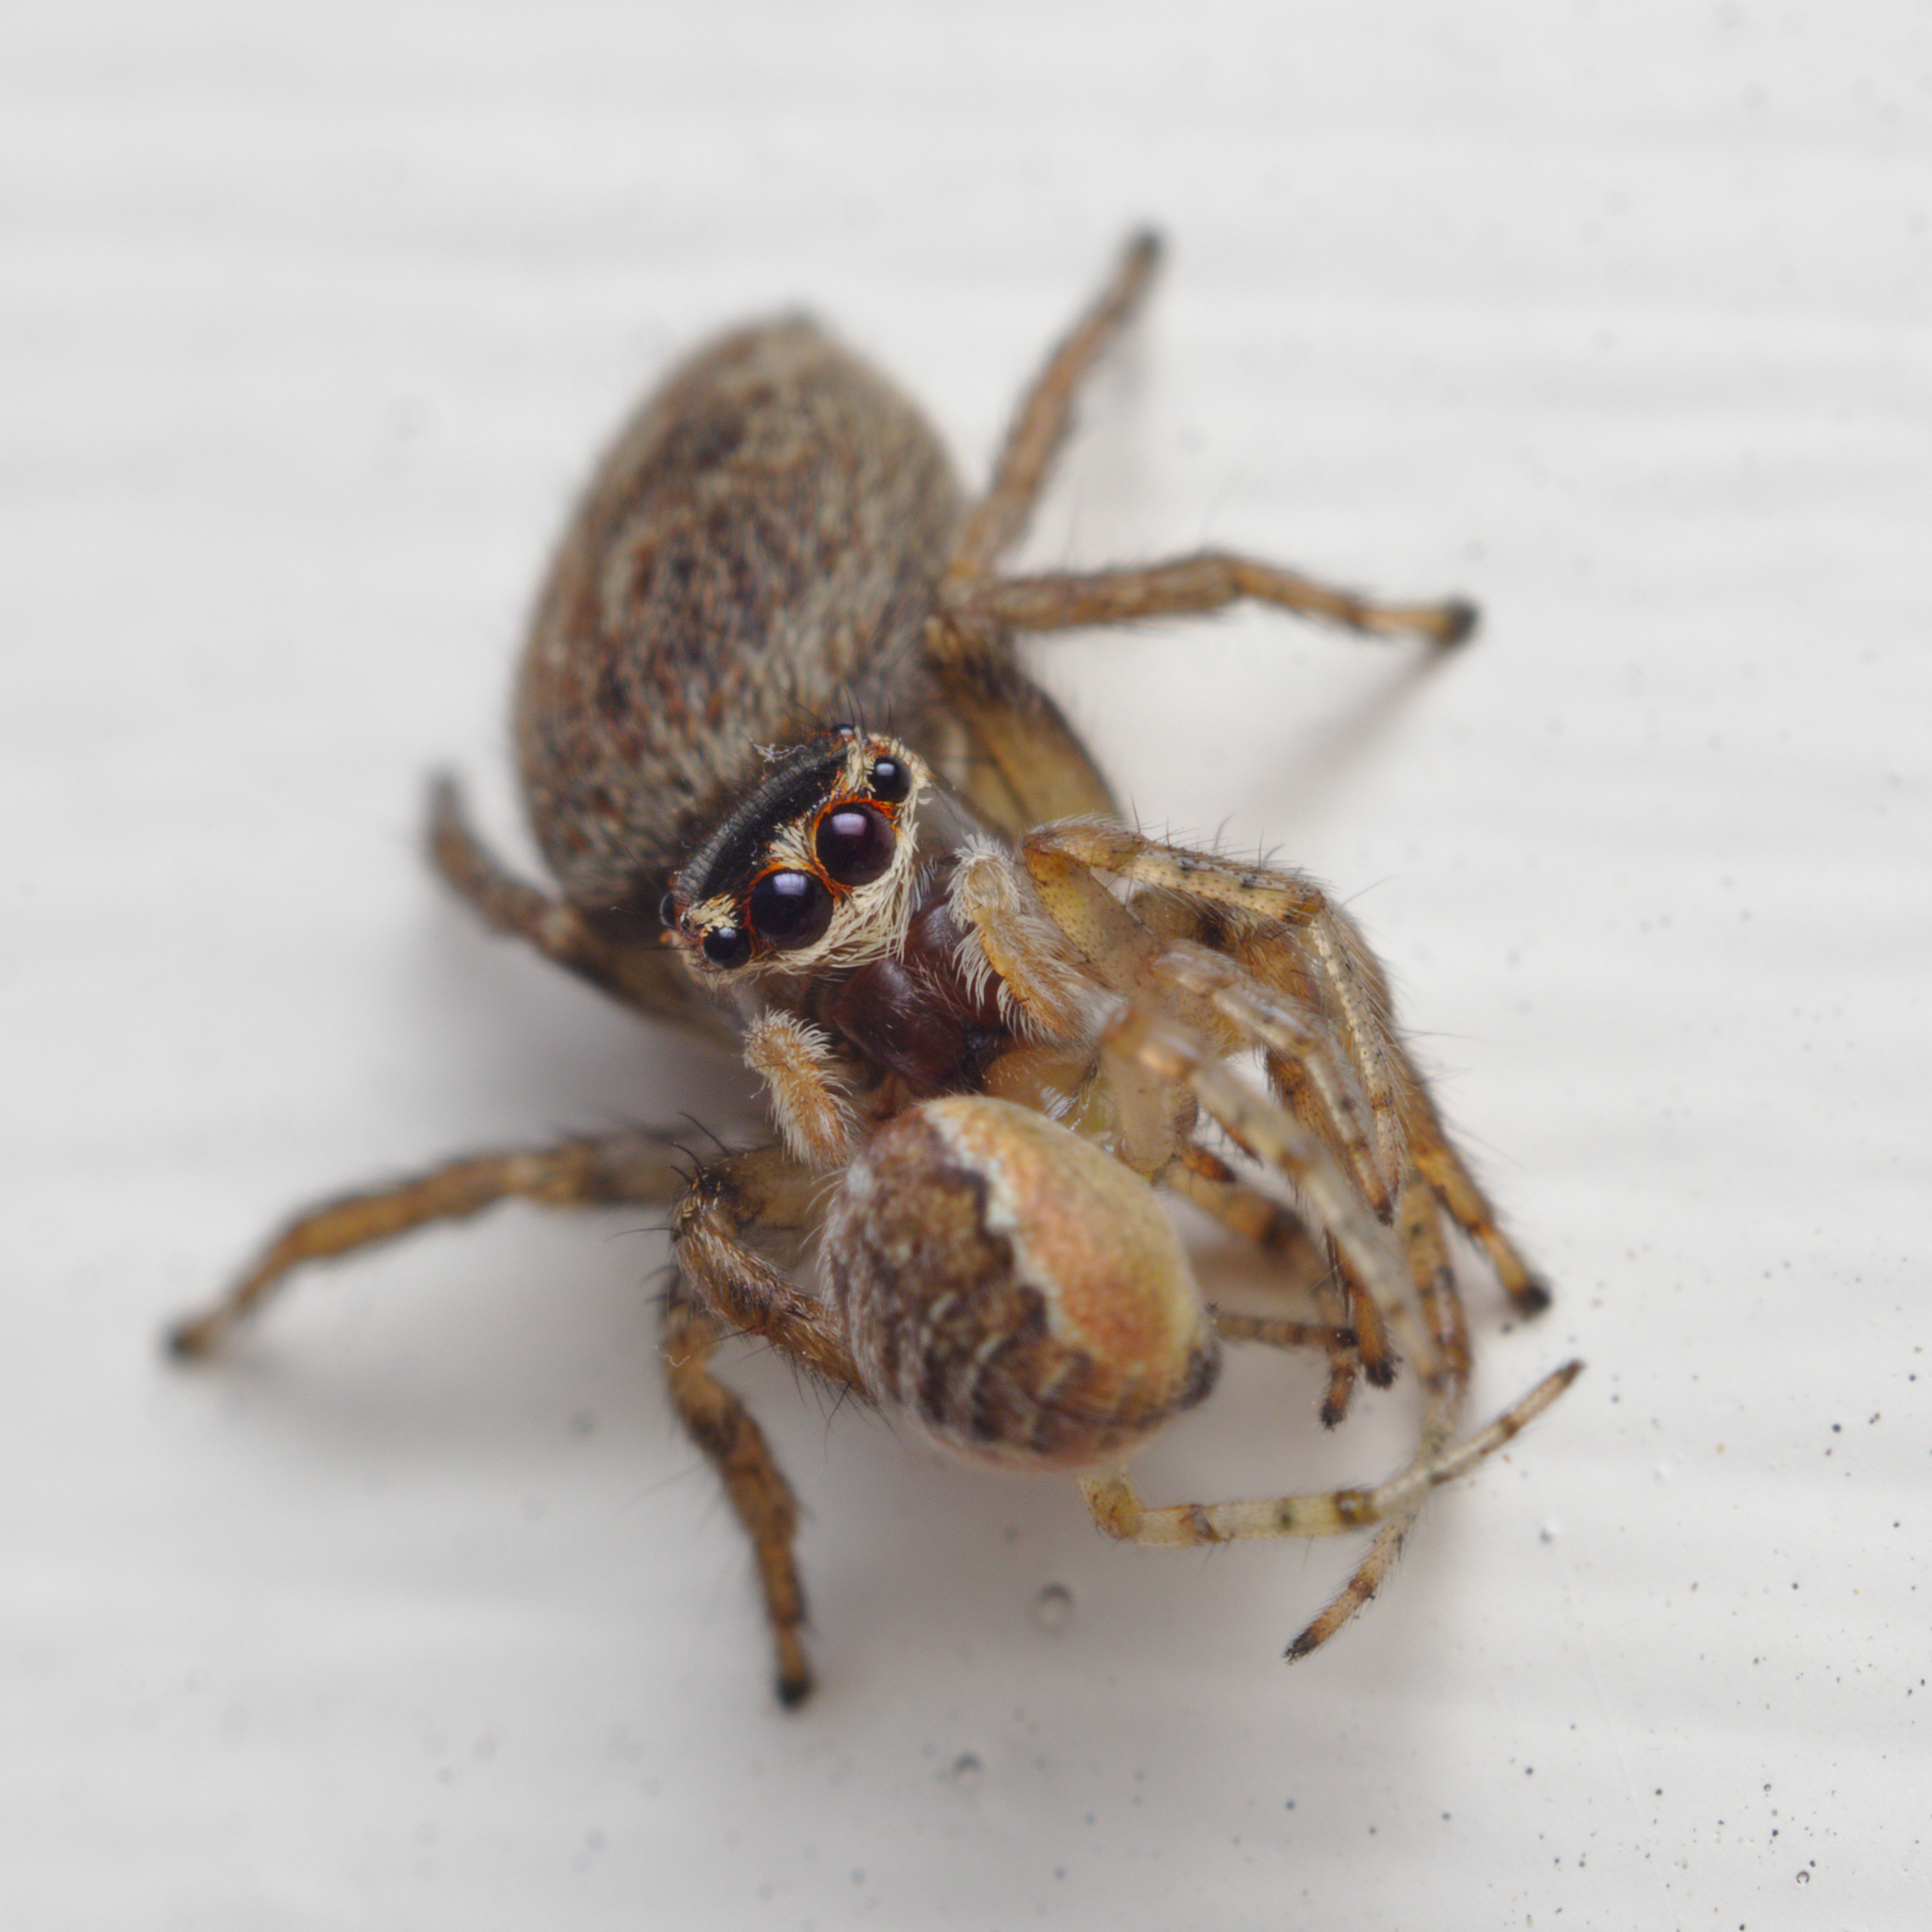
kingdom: Animalia
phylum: Arthropoda
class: Arachnida
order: Araneae
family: Salticidae
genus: Maratus
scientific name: Maratus griseus
